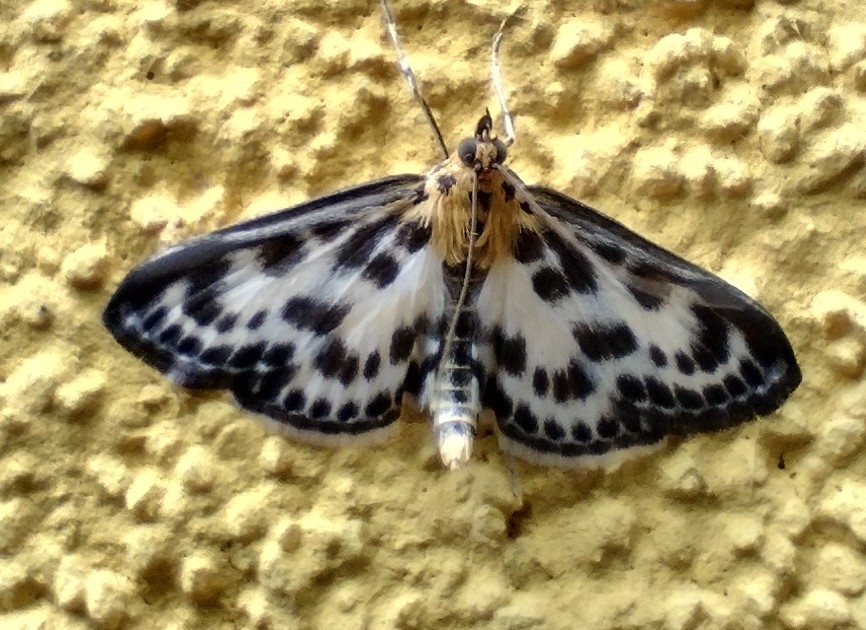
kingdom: Animalia
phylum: Arthropoda
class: Insecta
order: Lepidoptera
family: Crambidae
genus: Anania
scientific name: Anania hortulata
